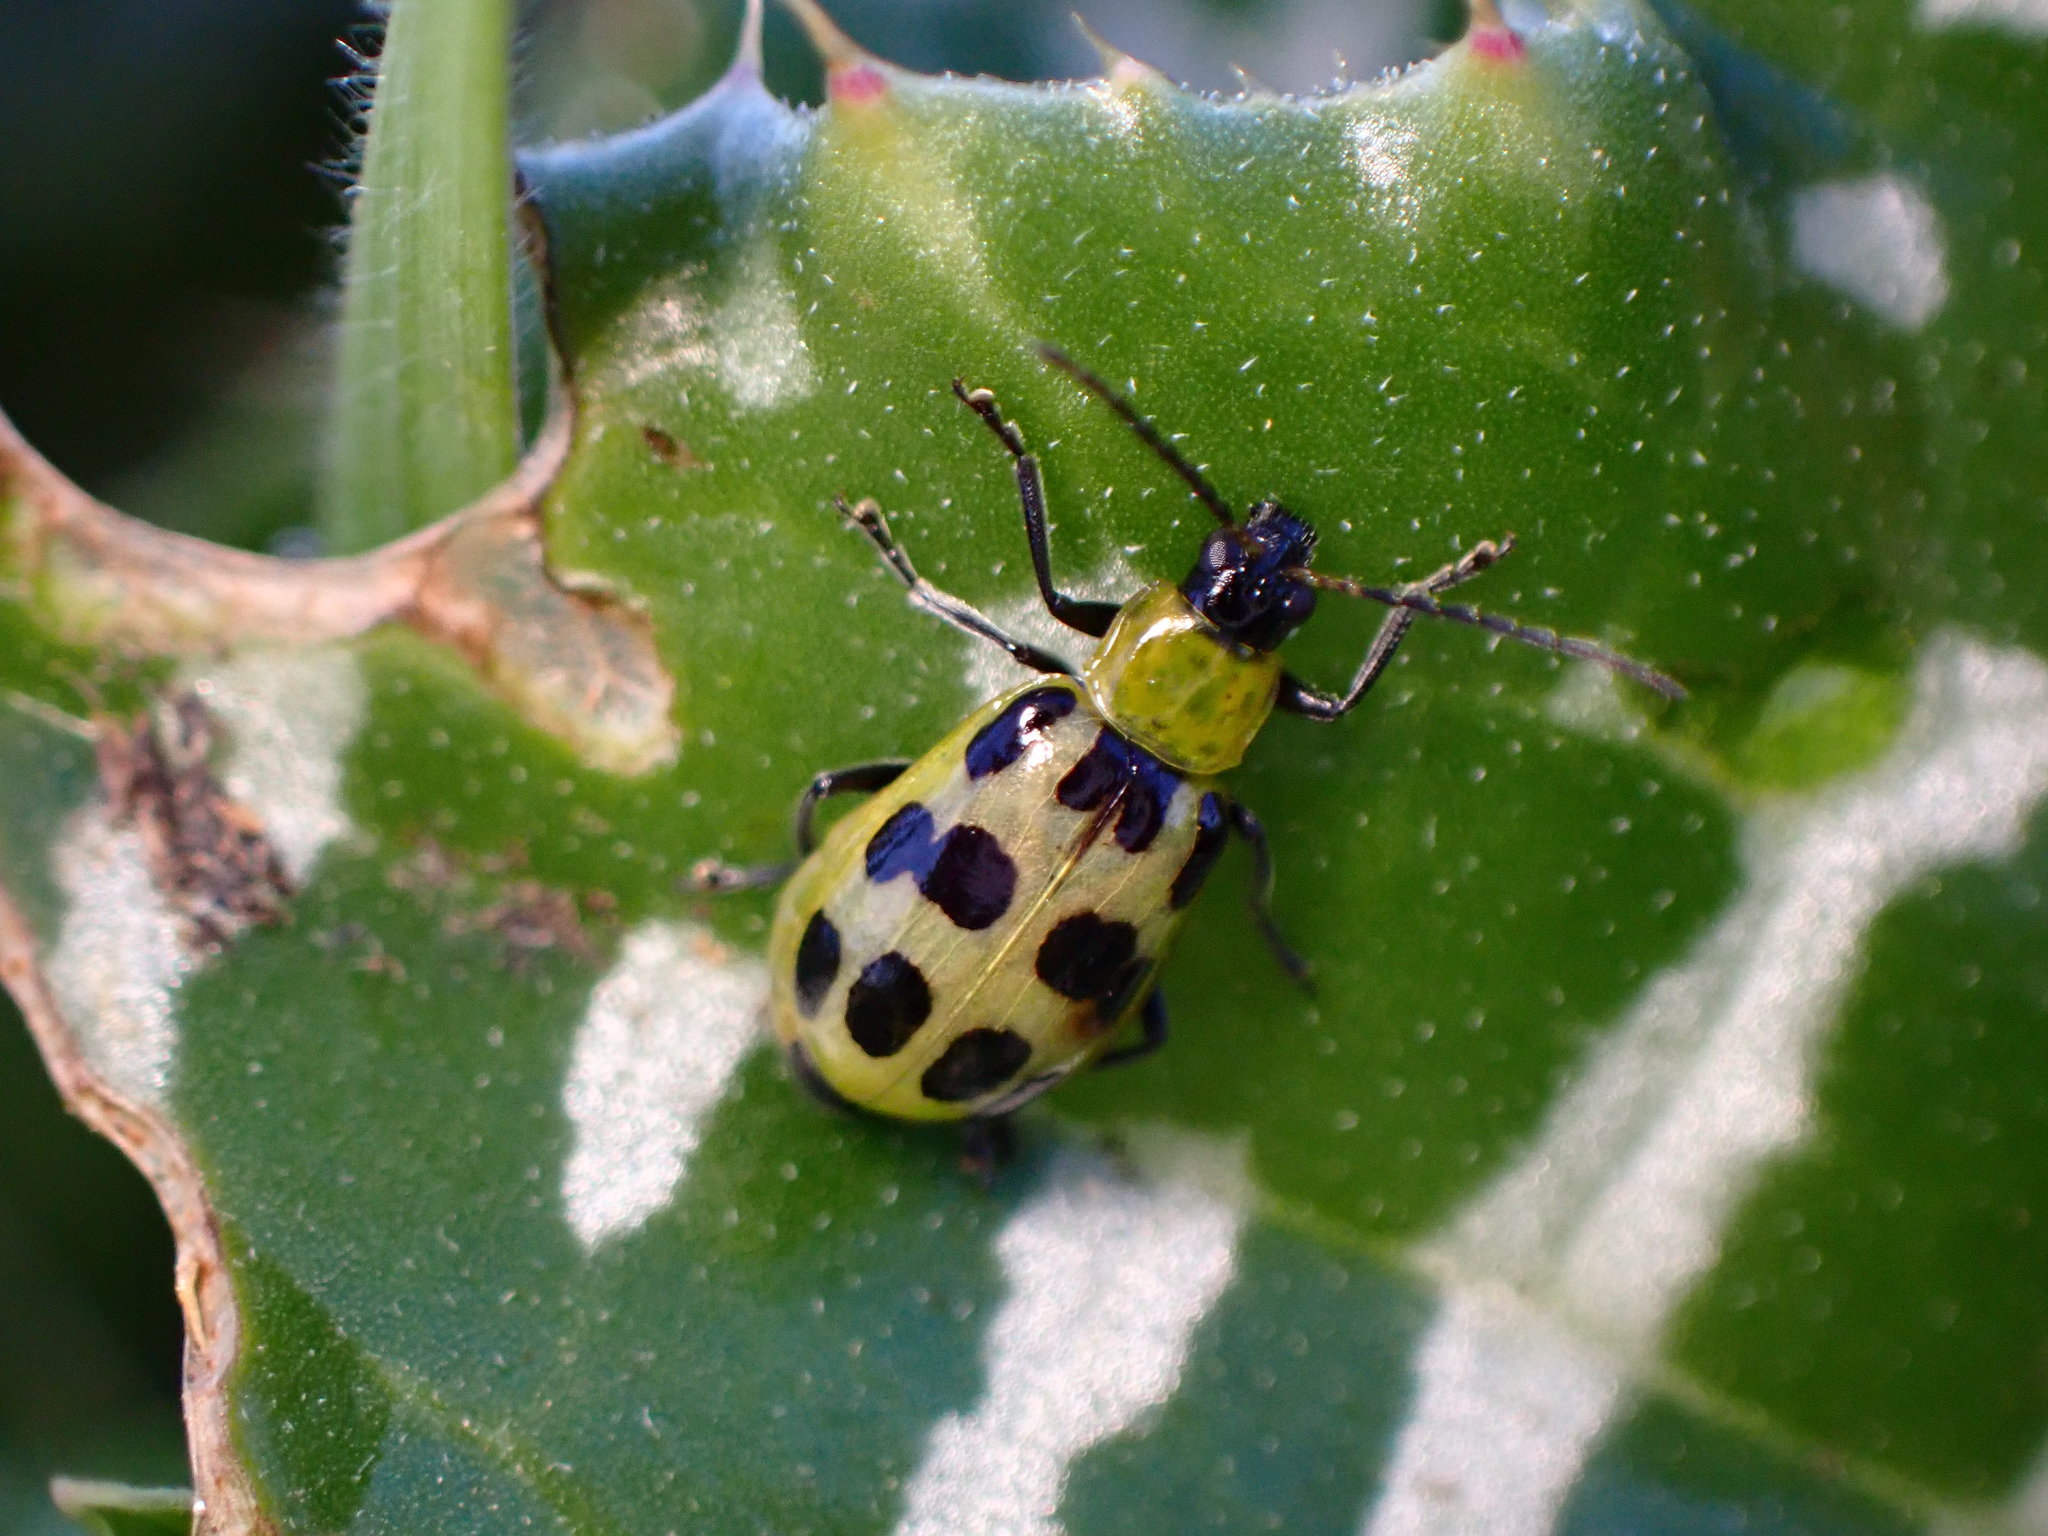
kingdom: Animalia
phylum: Arthropoda
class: Insecta
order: Coleoptera
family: Chrysomelidae
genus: Diabrotica
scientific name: Diabrotica undecimpunctata
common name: Spotted cucumber beetle
